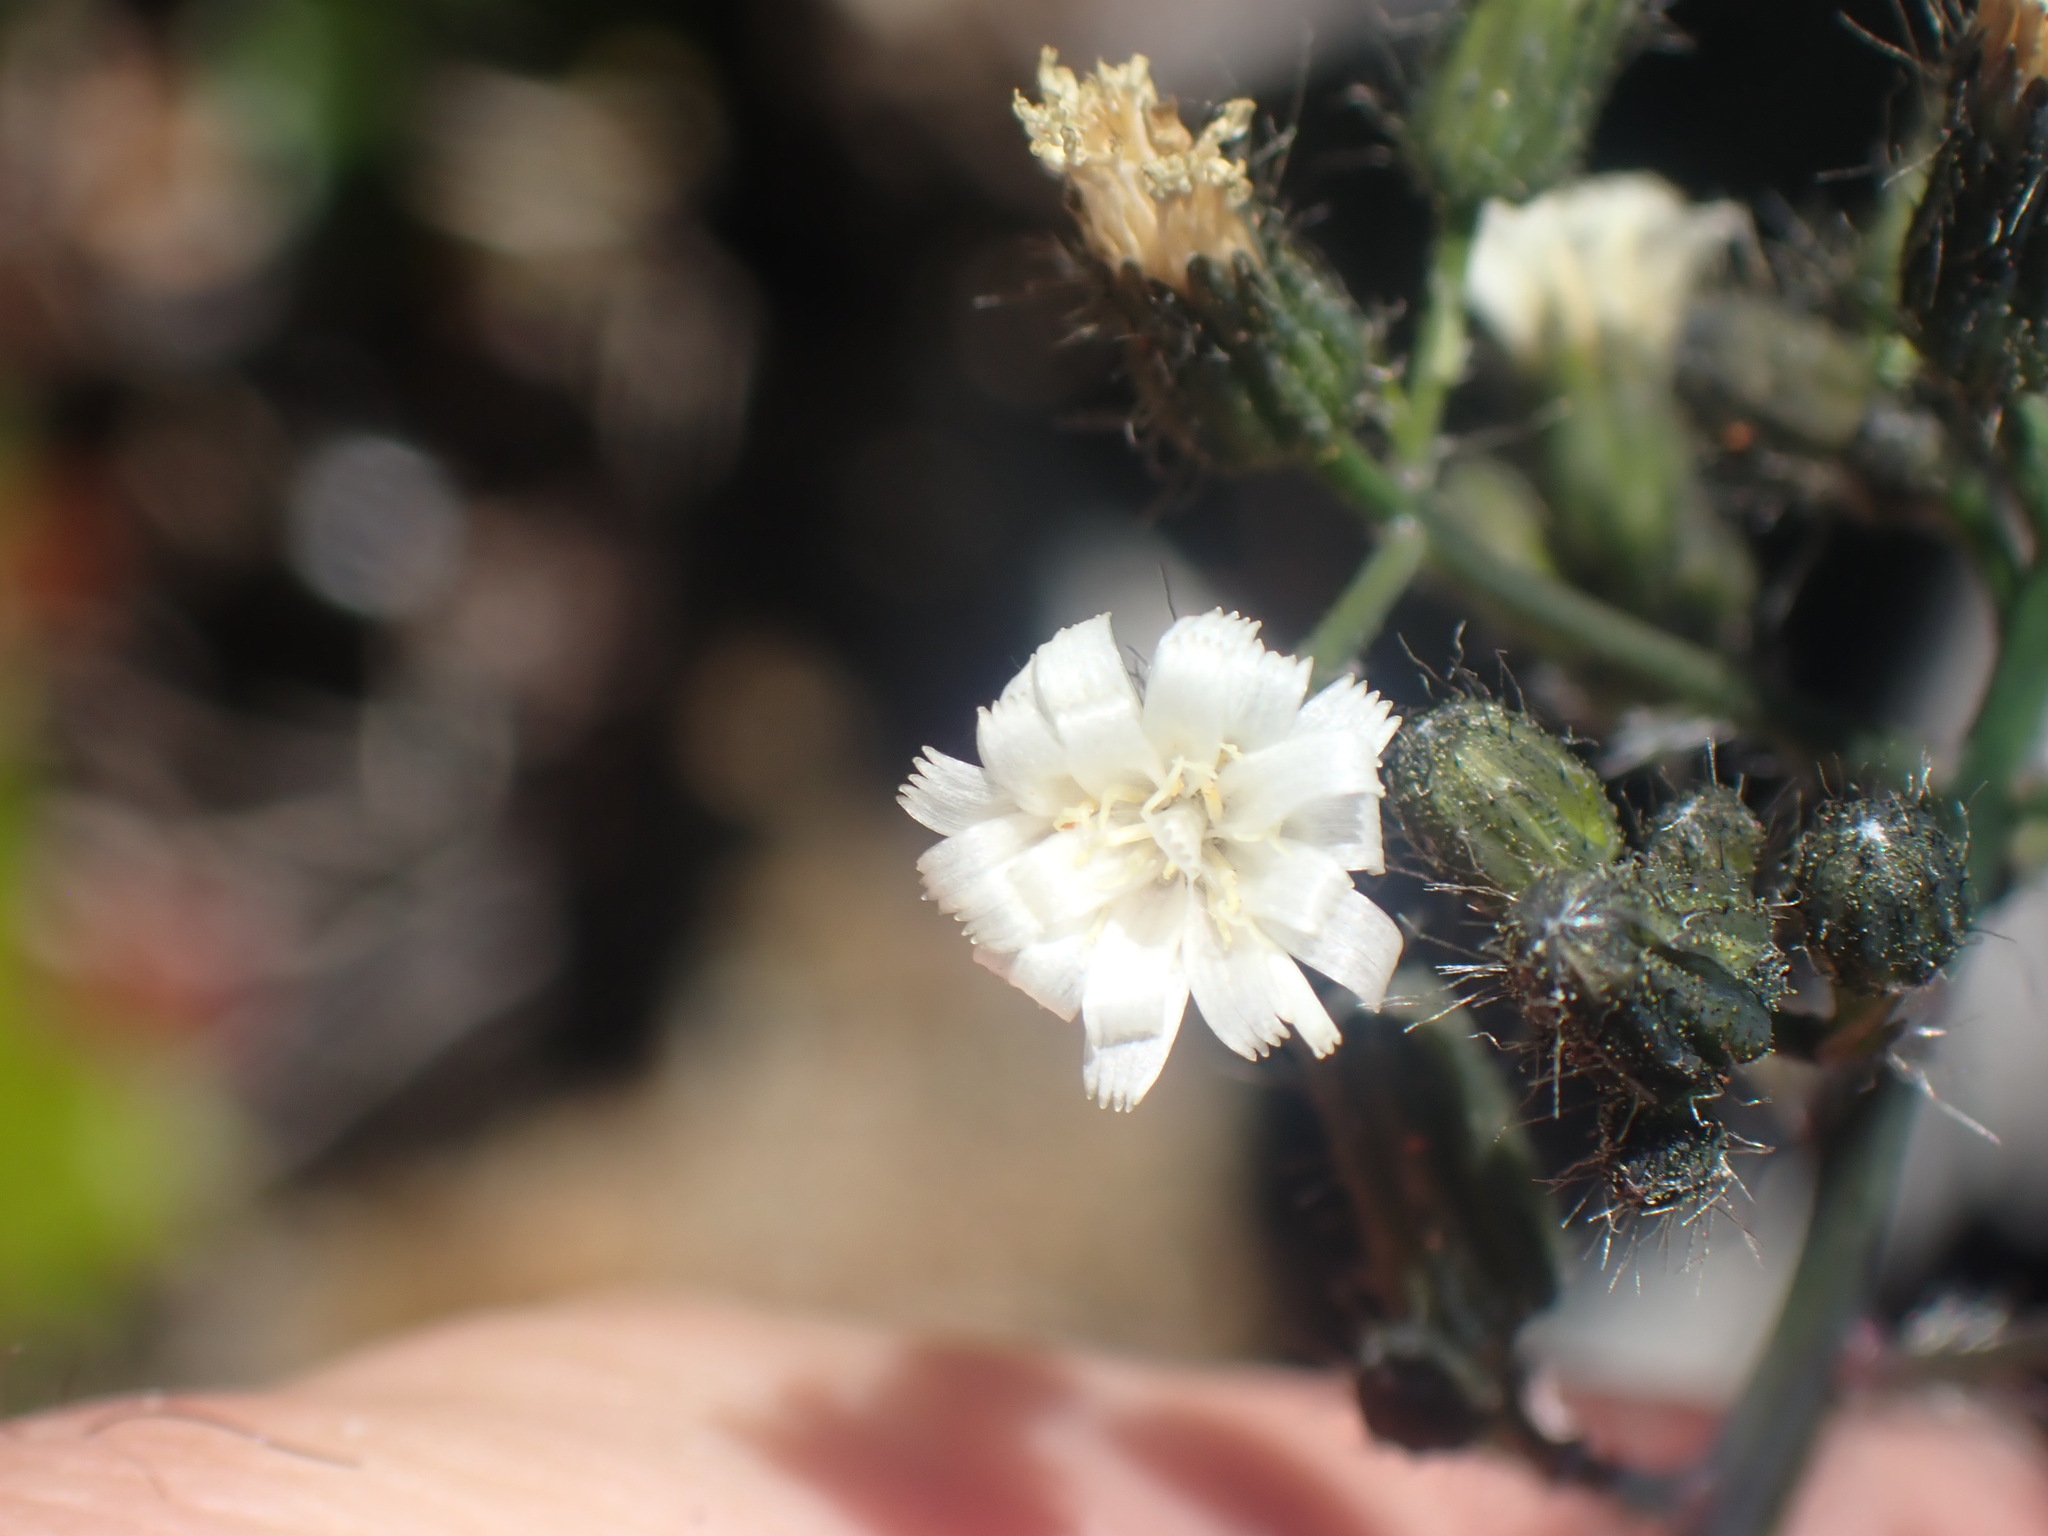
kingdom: Plantae
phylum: Tracheophyta
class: Magnoliopsida
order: Asterales
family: Asteraceae
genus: Hieracium
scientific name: Hieracium albiflorum
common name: White hawkweed
